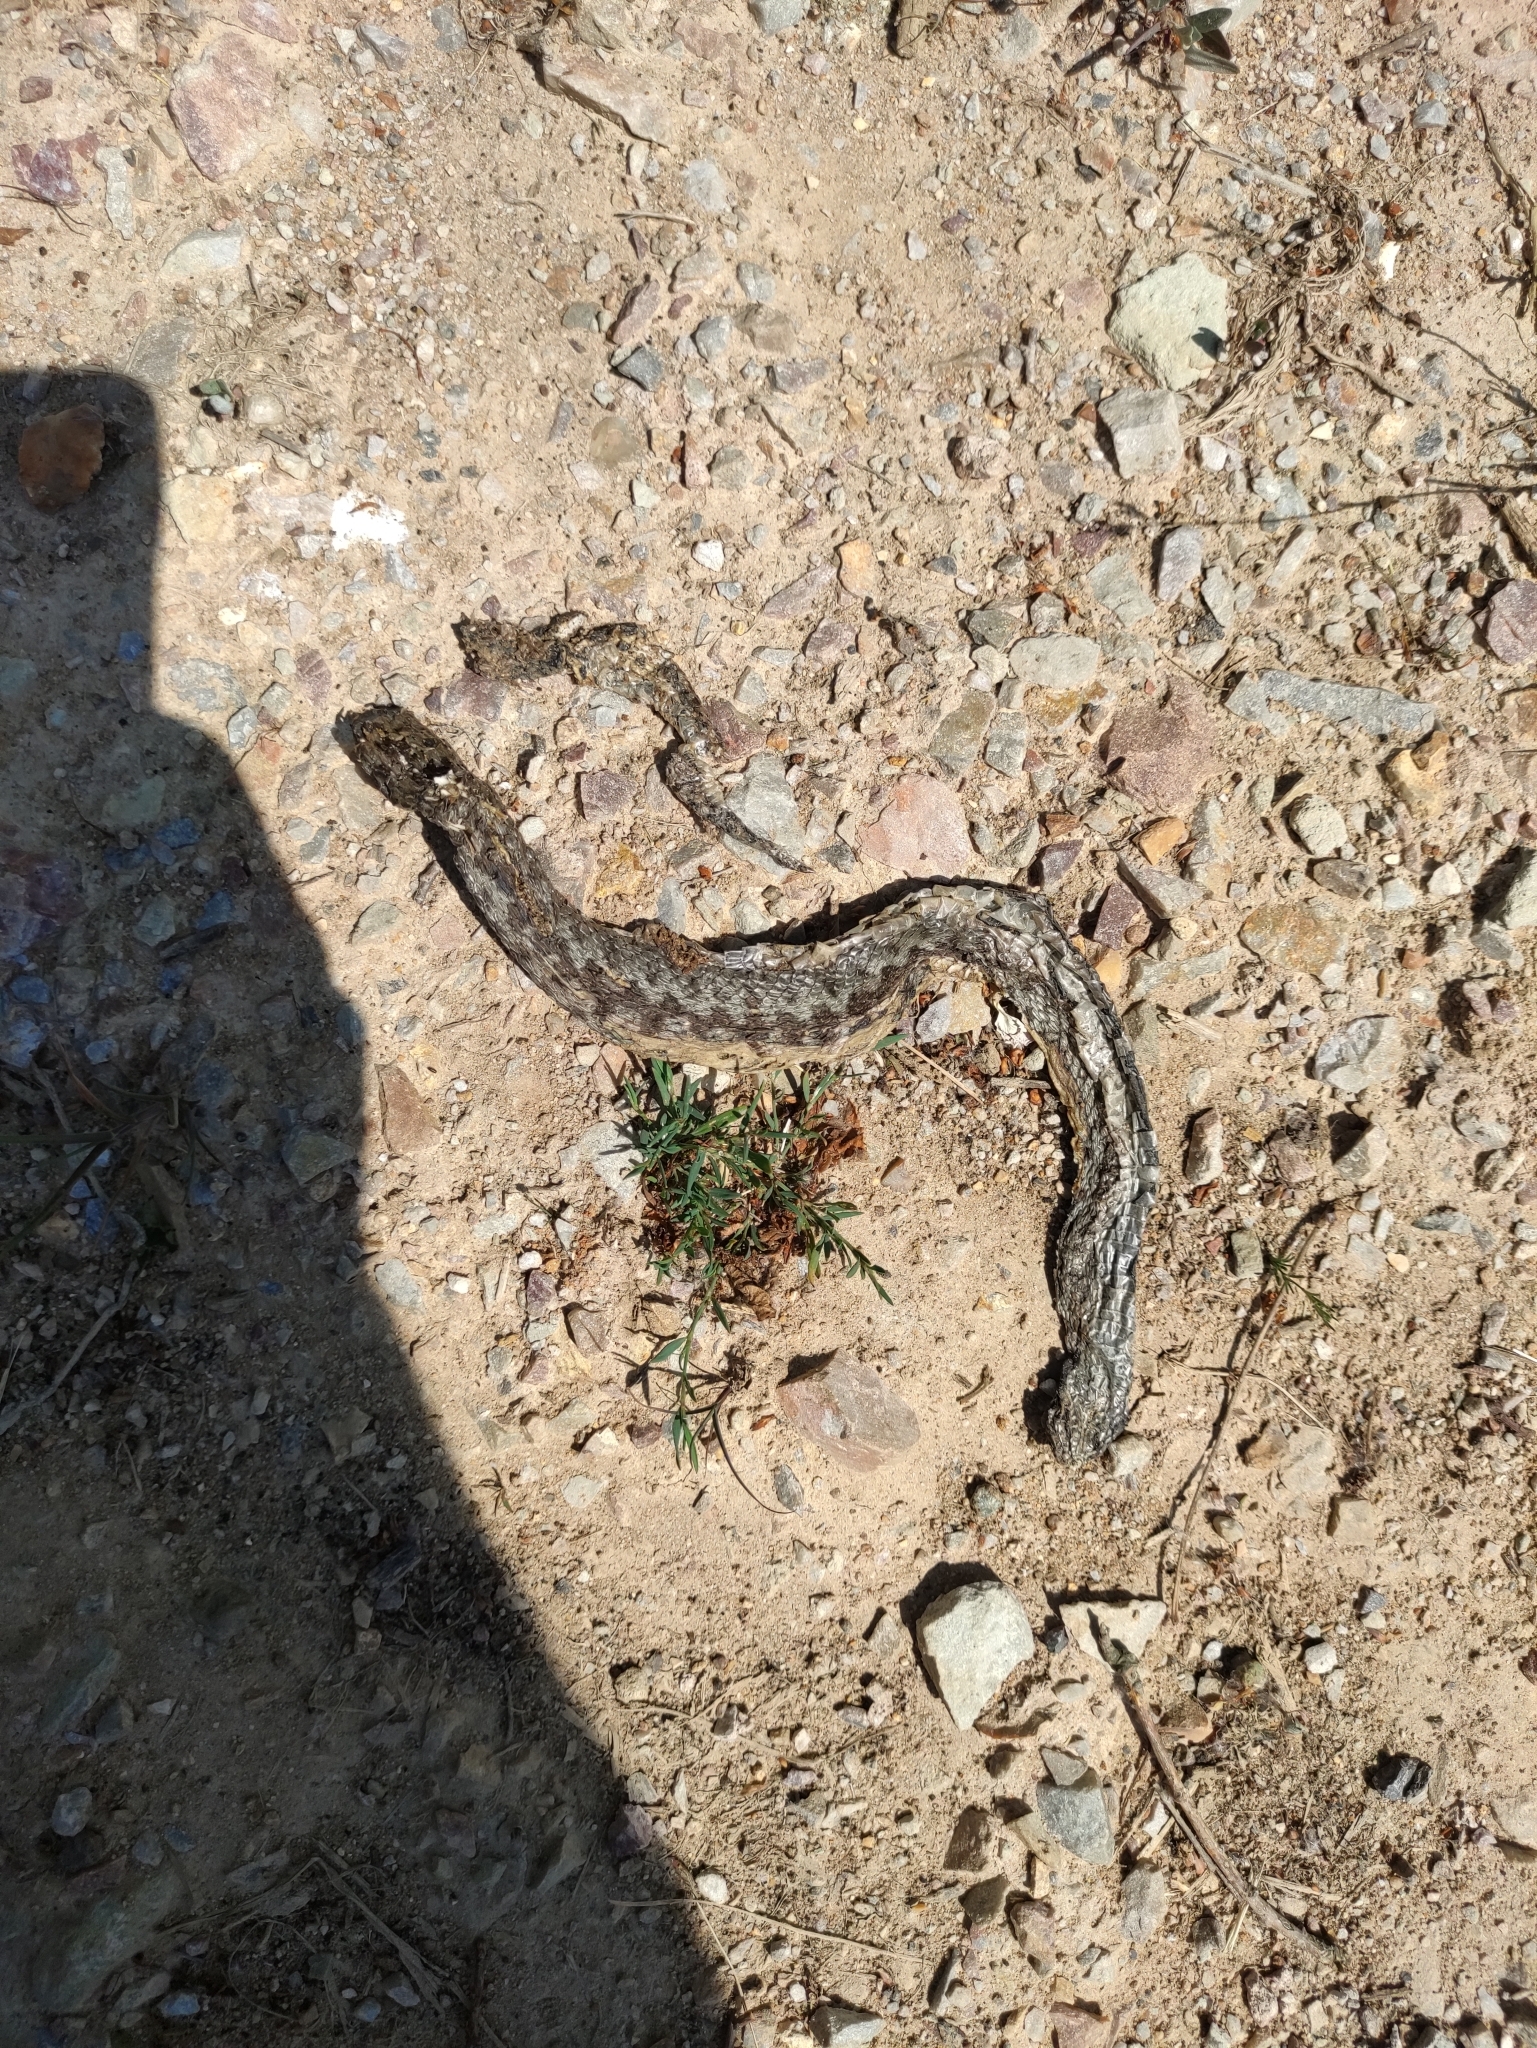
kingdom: Animalia
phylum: Chordata
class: Squamata
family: Viperidae
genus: Vipera
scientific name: Vipera berus
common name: Adder
